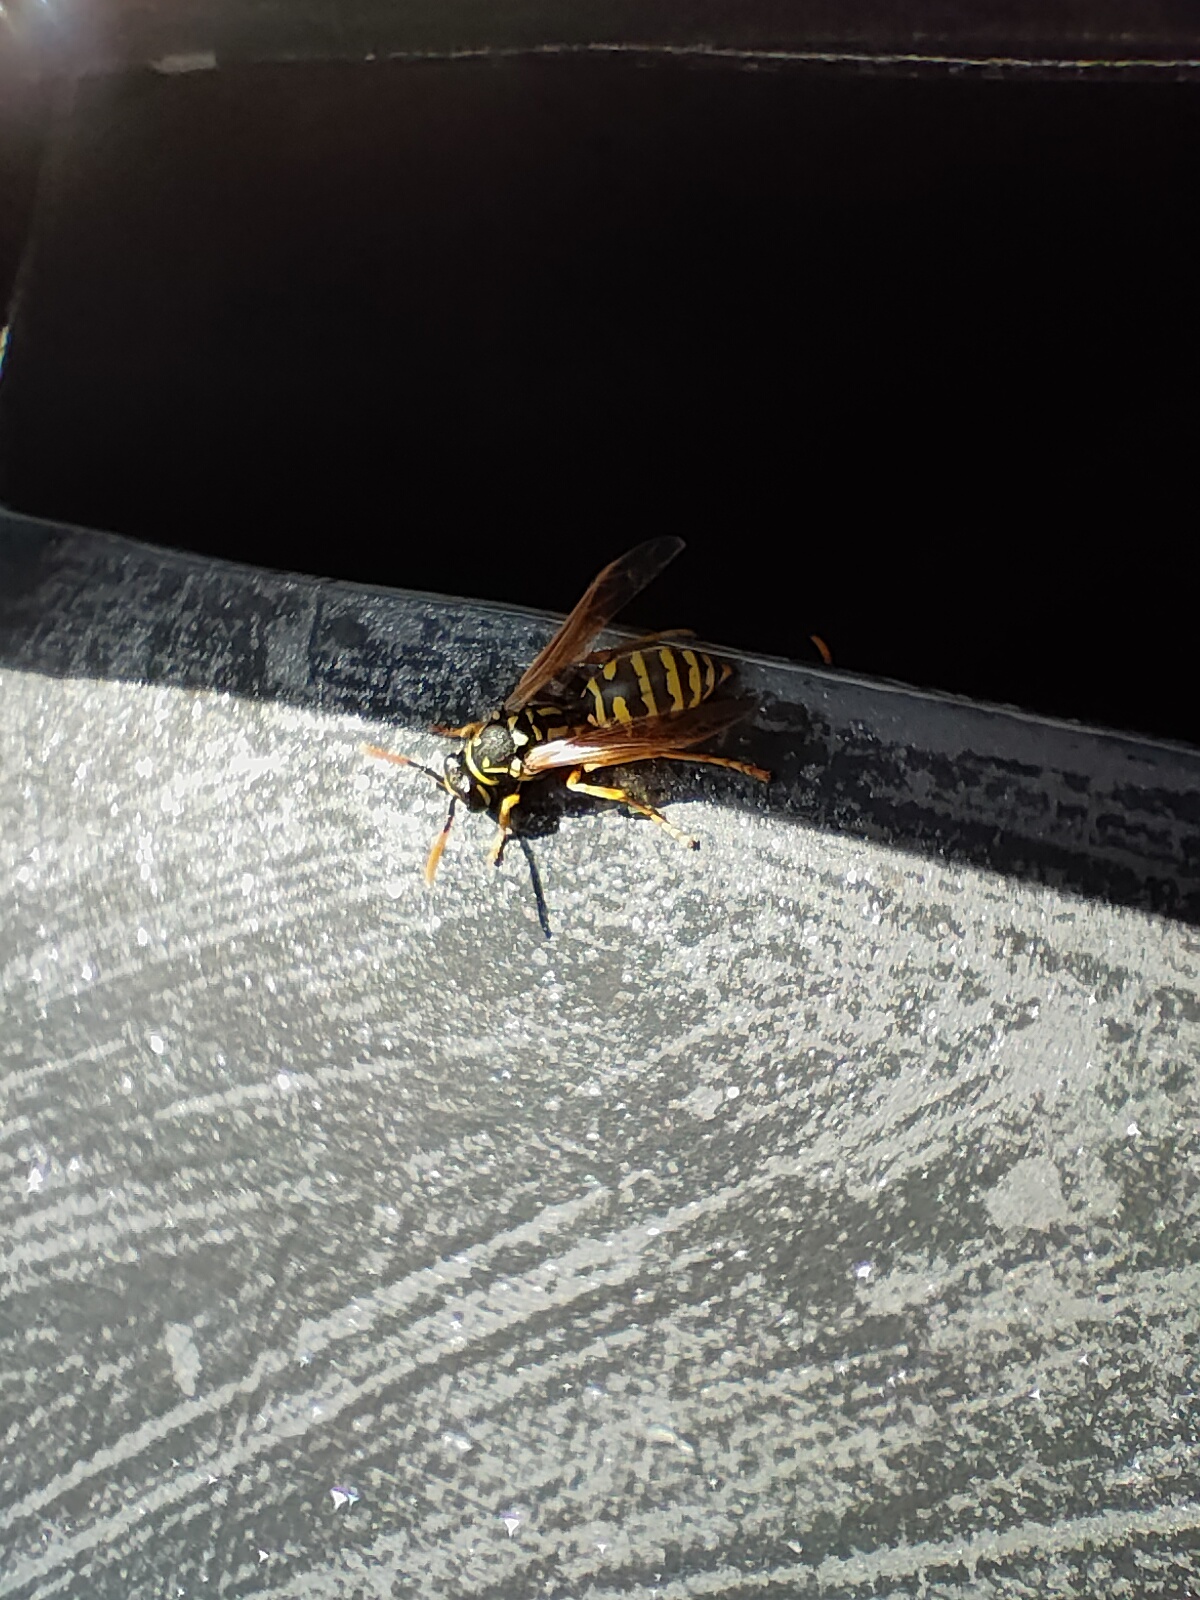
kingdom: Animalia
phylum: Arthropoda
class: Insecta
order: Hymenoptera
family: Eumenidae
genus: Polistes
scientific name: Polistes dominula
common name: Paper wasp
